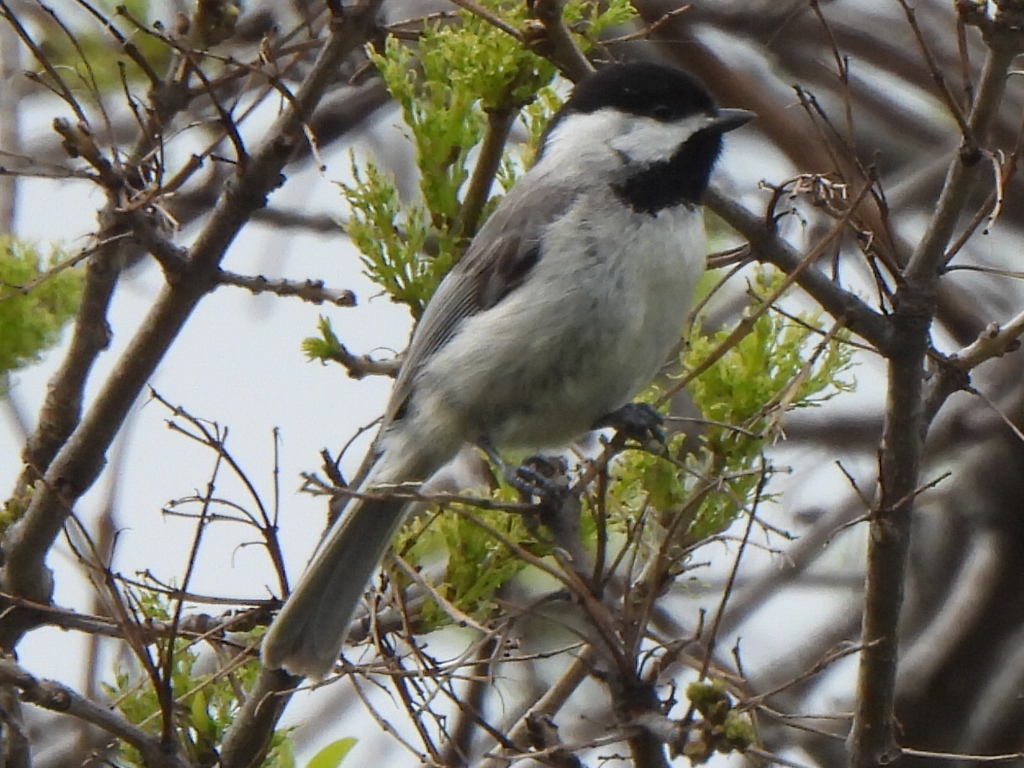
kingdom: Animalia
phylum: Chordata
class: Aves
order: Passeriformes
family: Paridae
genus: Poecile
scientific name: Poecile carolinensis
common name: Carolina chickadee
